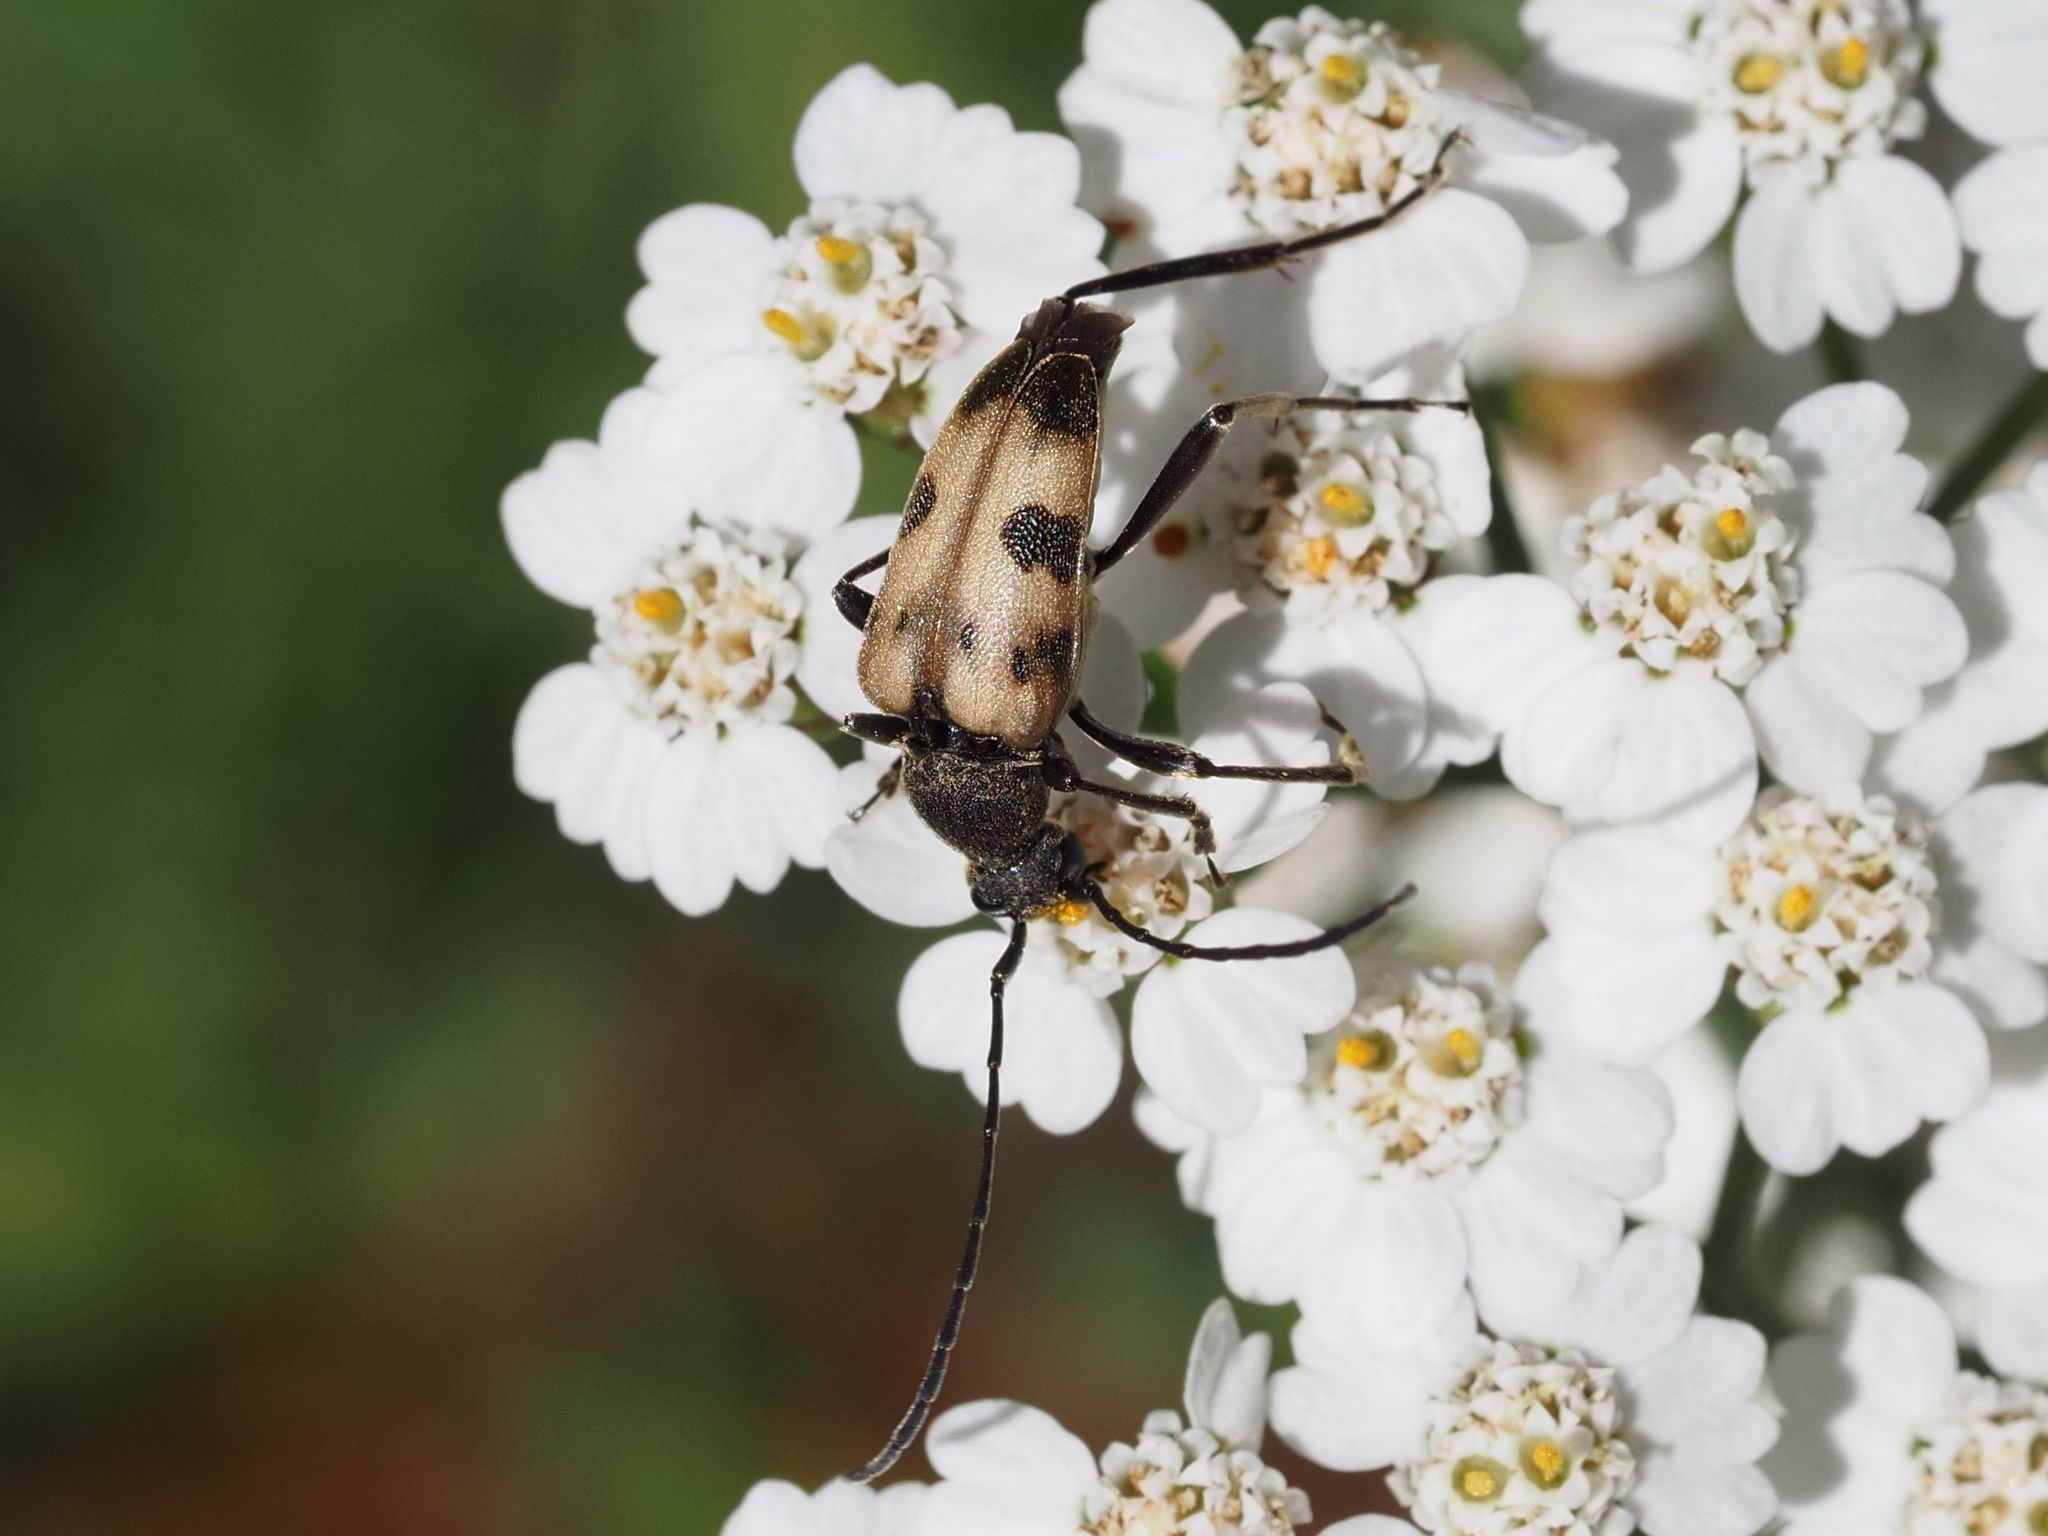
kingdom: Animalia
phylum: Arthropoda
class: Insecta
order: Coleoptera
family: Cerambycidae
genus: Pachytodes
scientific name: Pachytodes cerambyciformis
